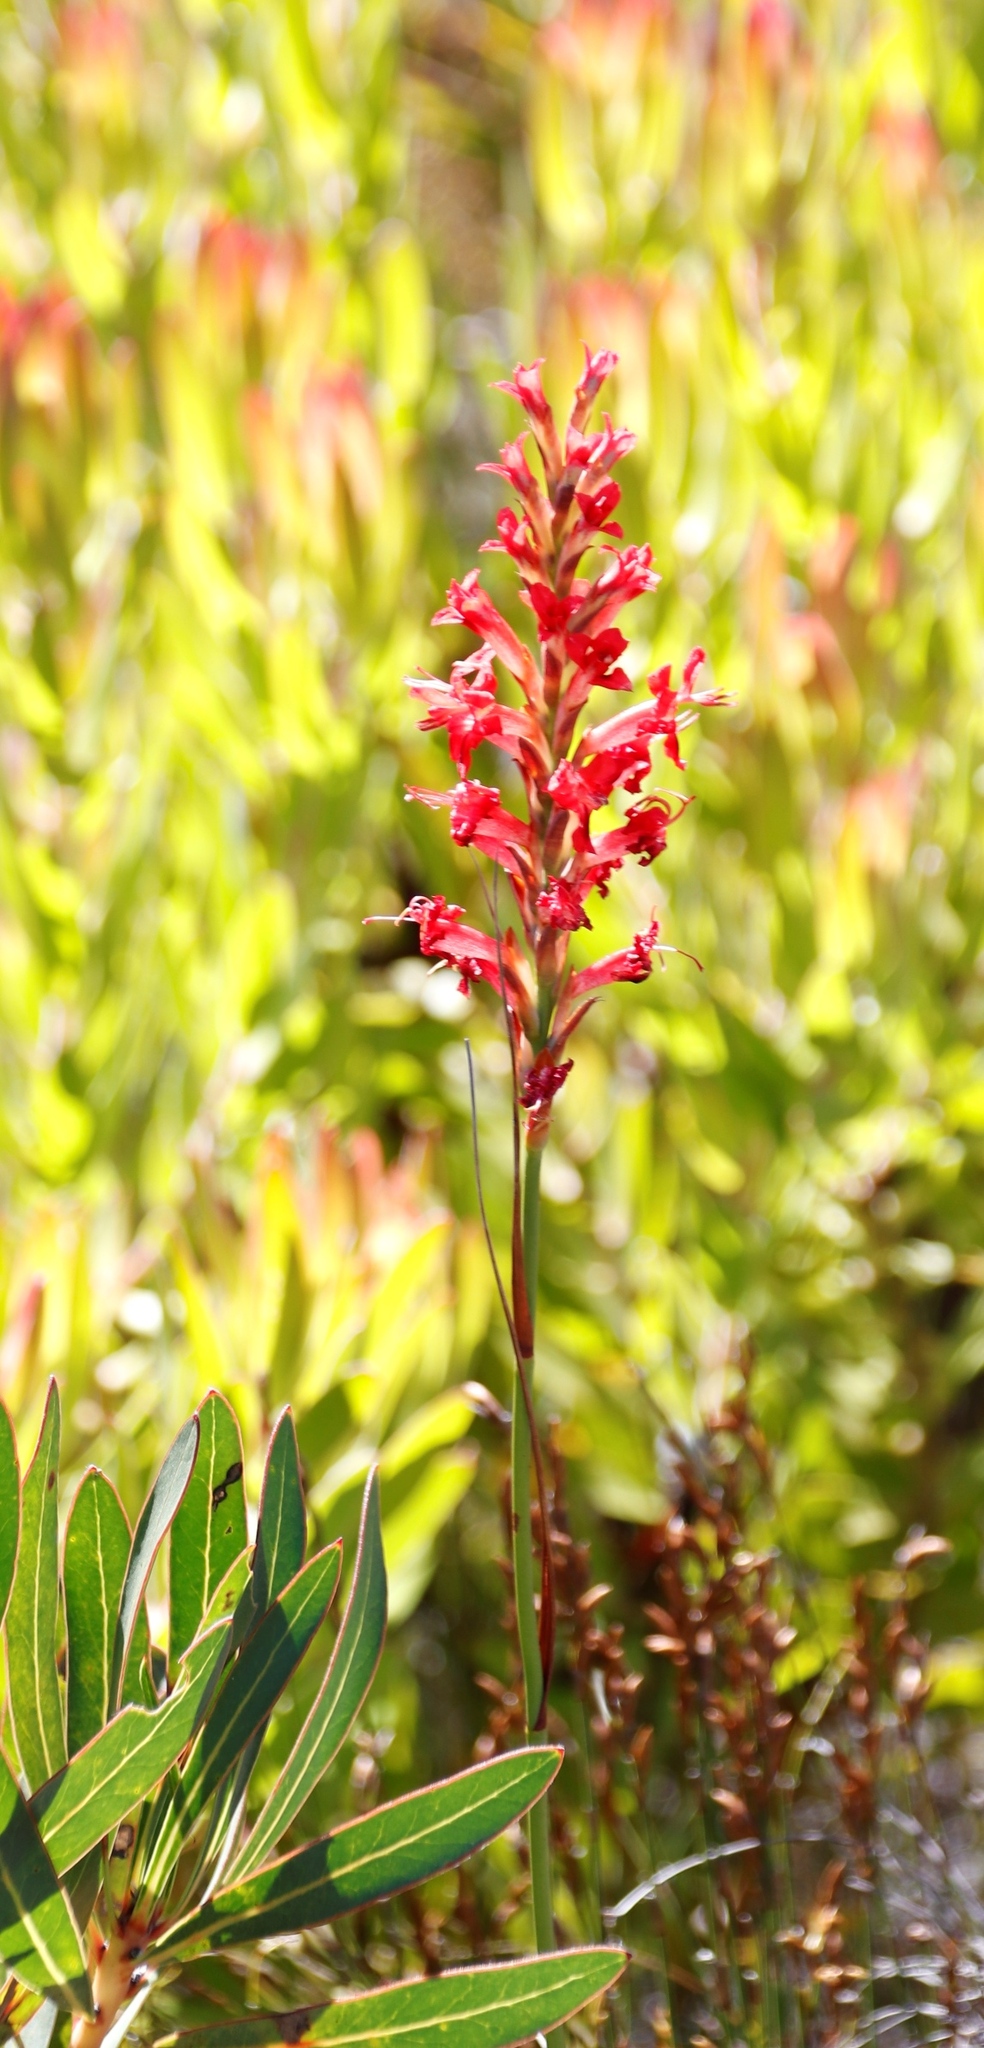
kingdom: Plantae
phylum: Tracheophyta
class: Liliopsida
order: Asparagales
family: Iridaceae
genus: Tritoniopsis
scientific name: Tritoniopsis triticea
